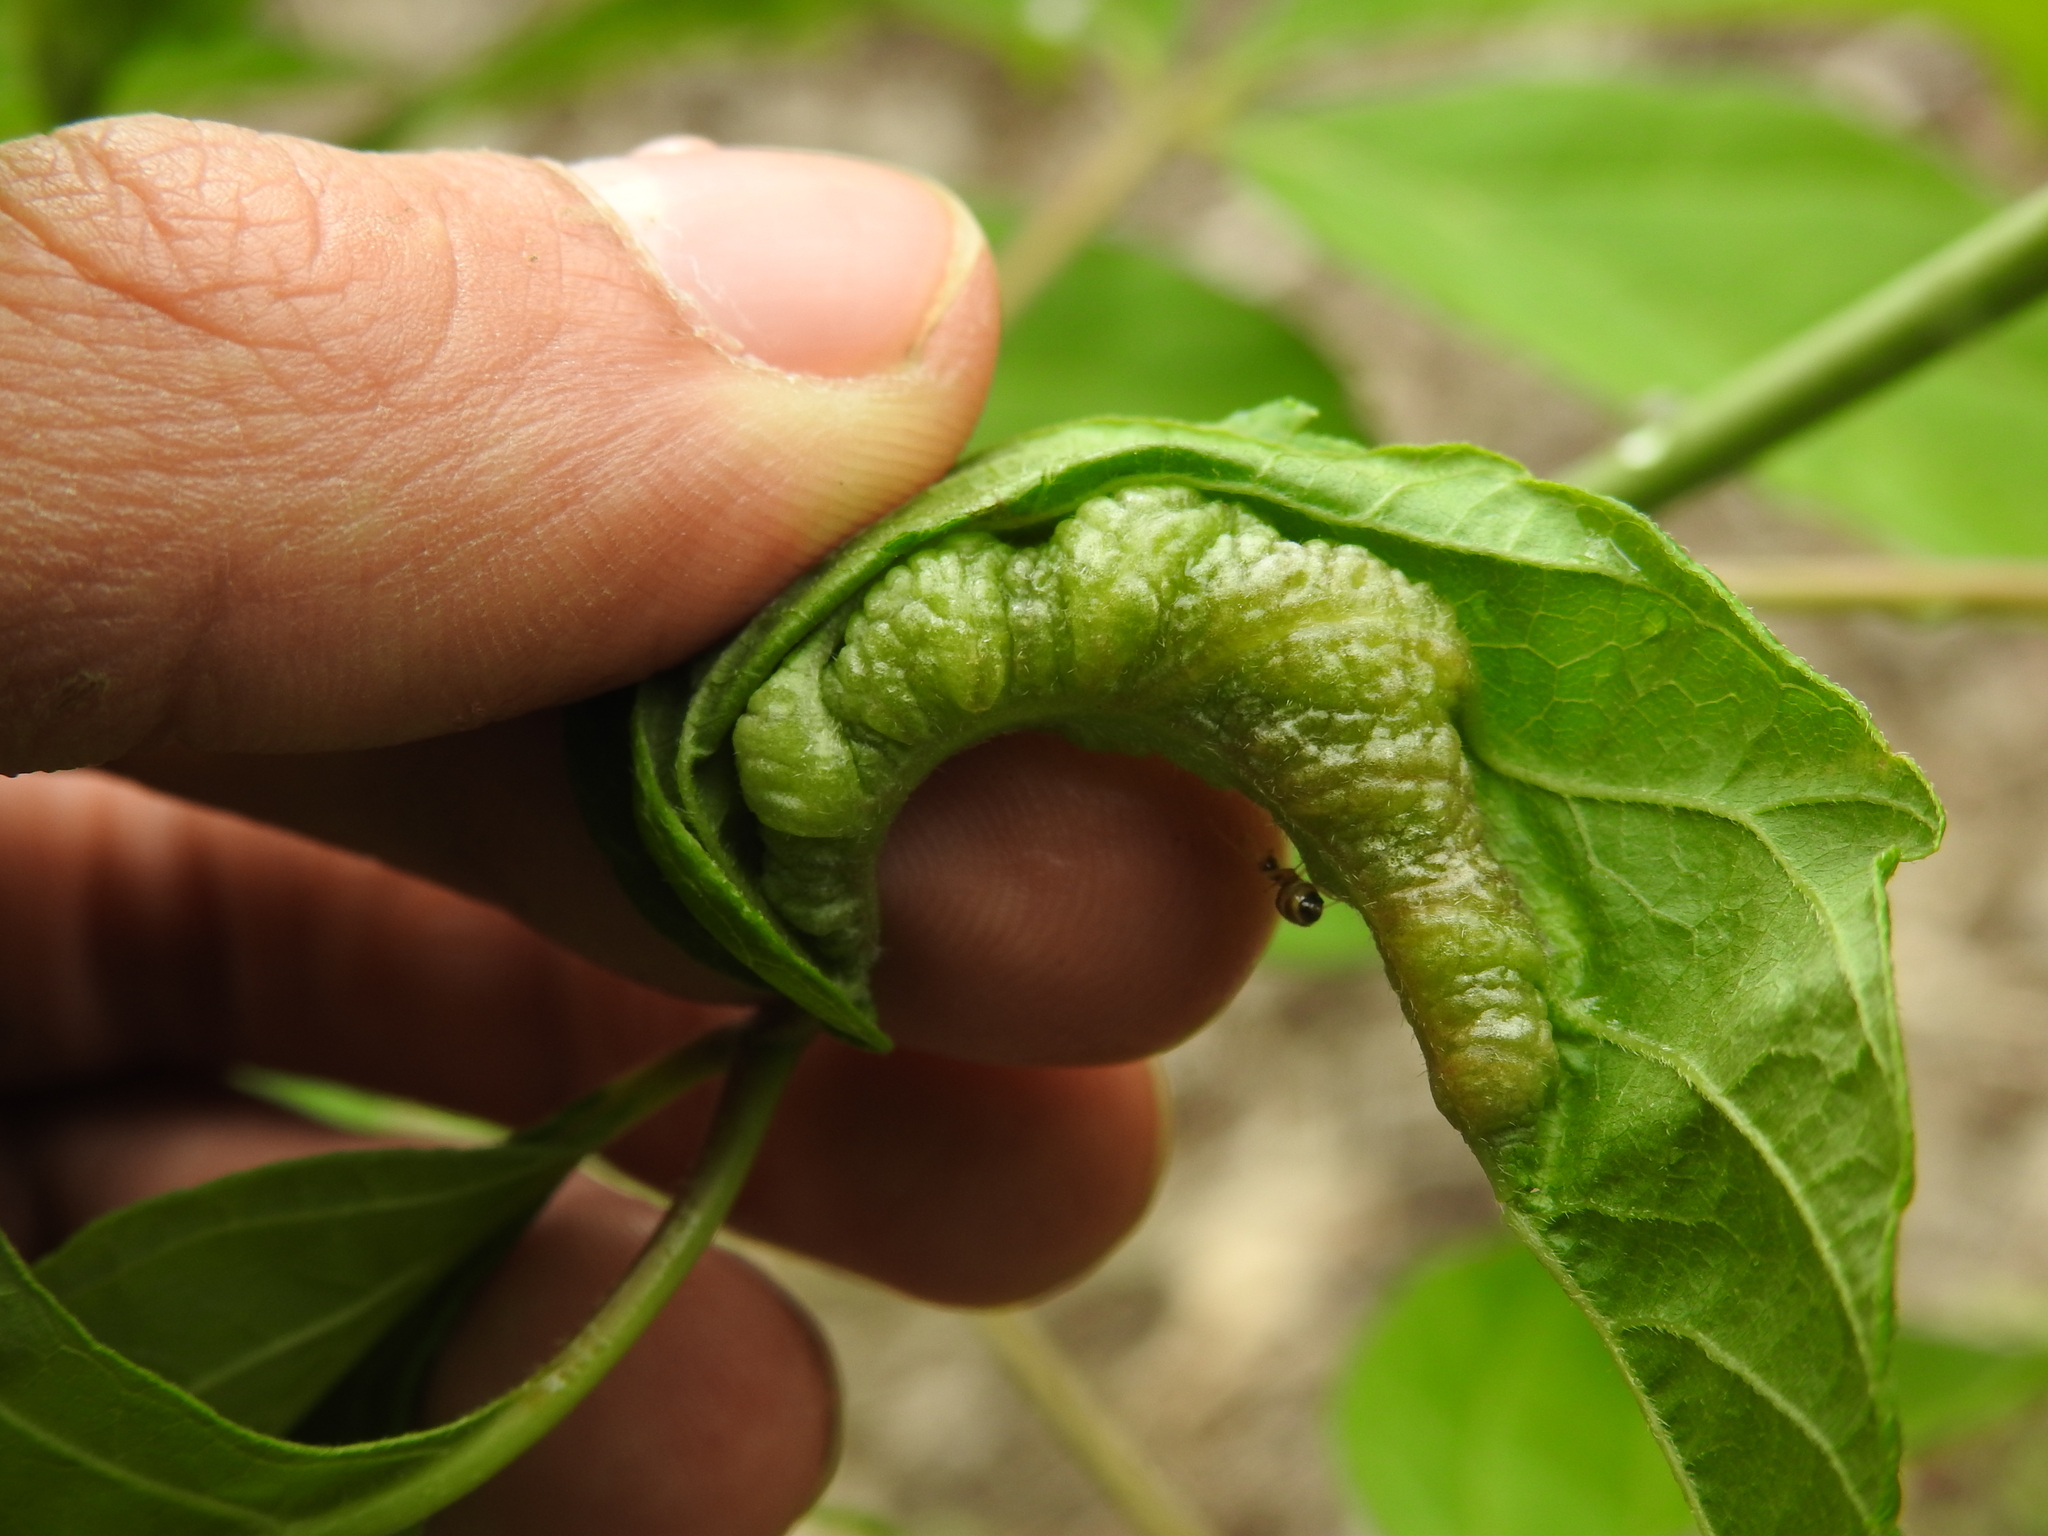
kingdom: Animalia
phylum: Arthropoda
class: Insecta
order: Diptera
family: Cecidomyiidae
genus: Contarinia
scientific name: Contarinia negundinis
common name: Boxelder budgall midge
